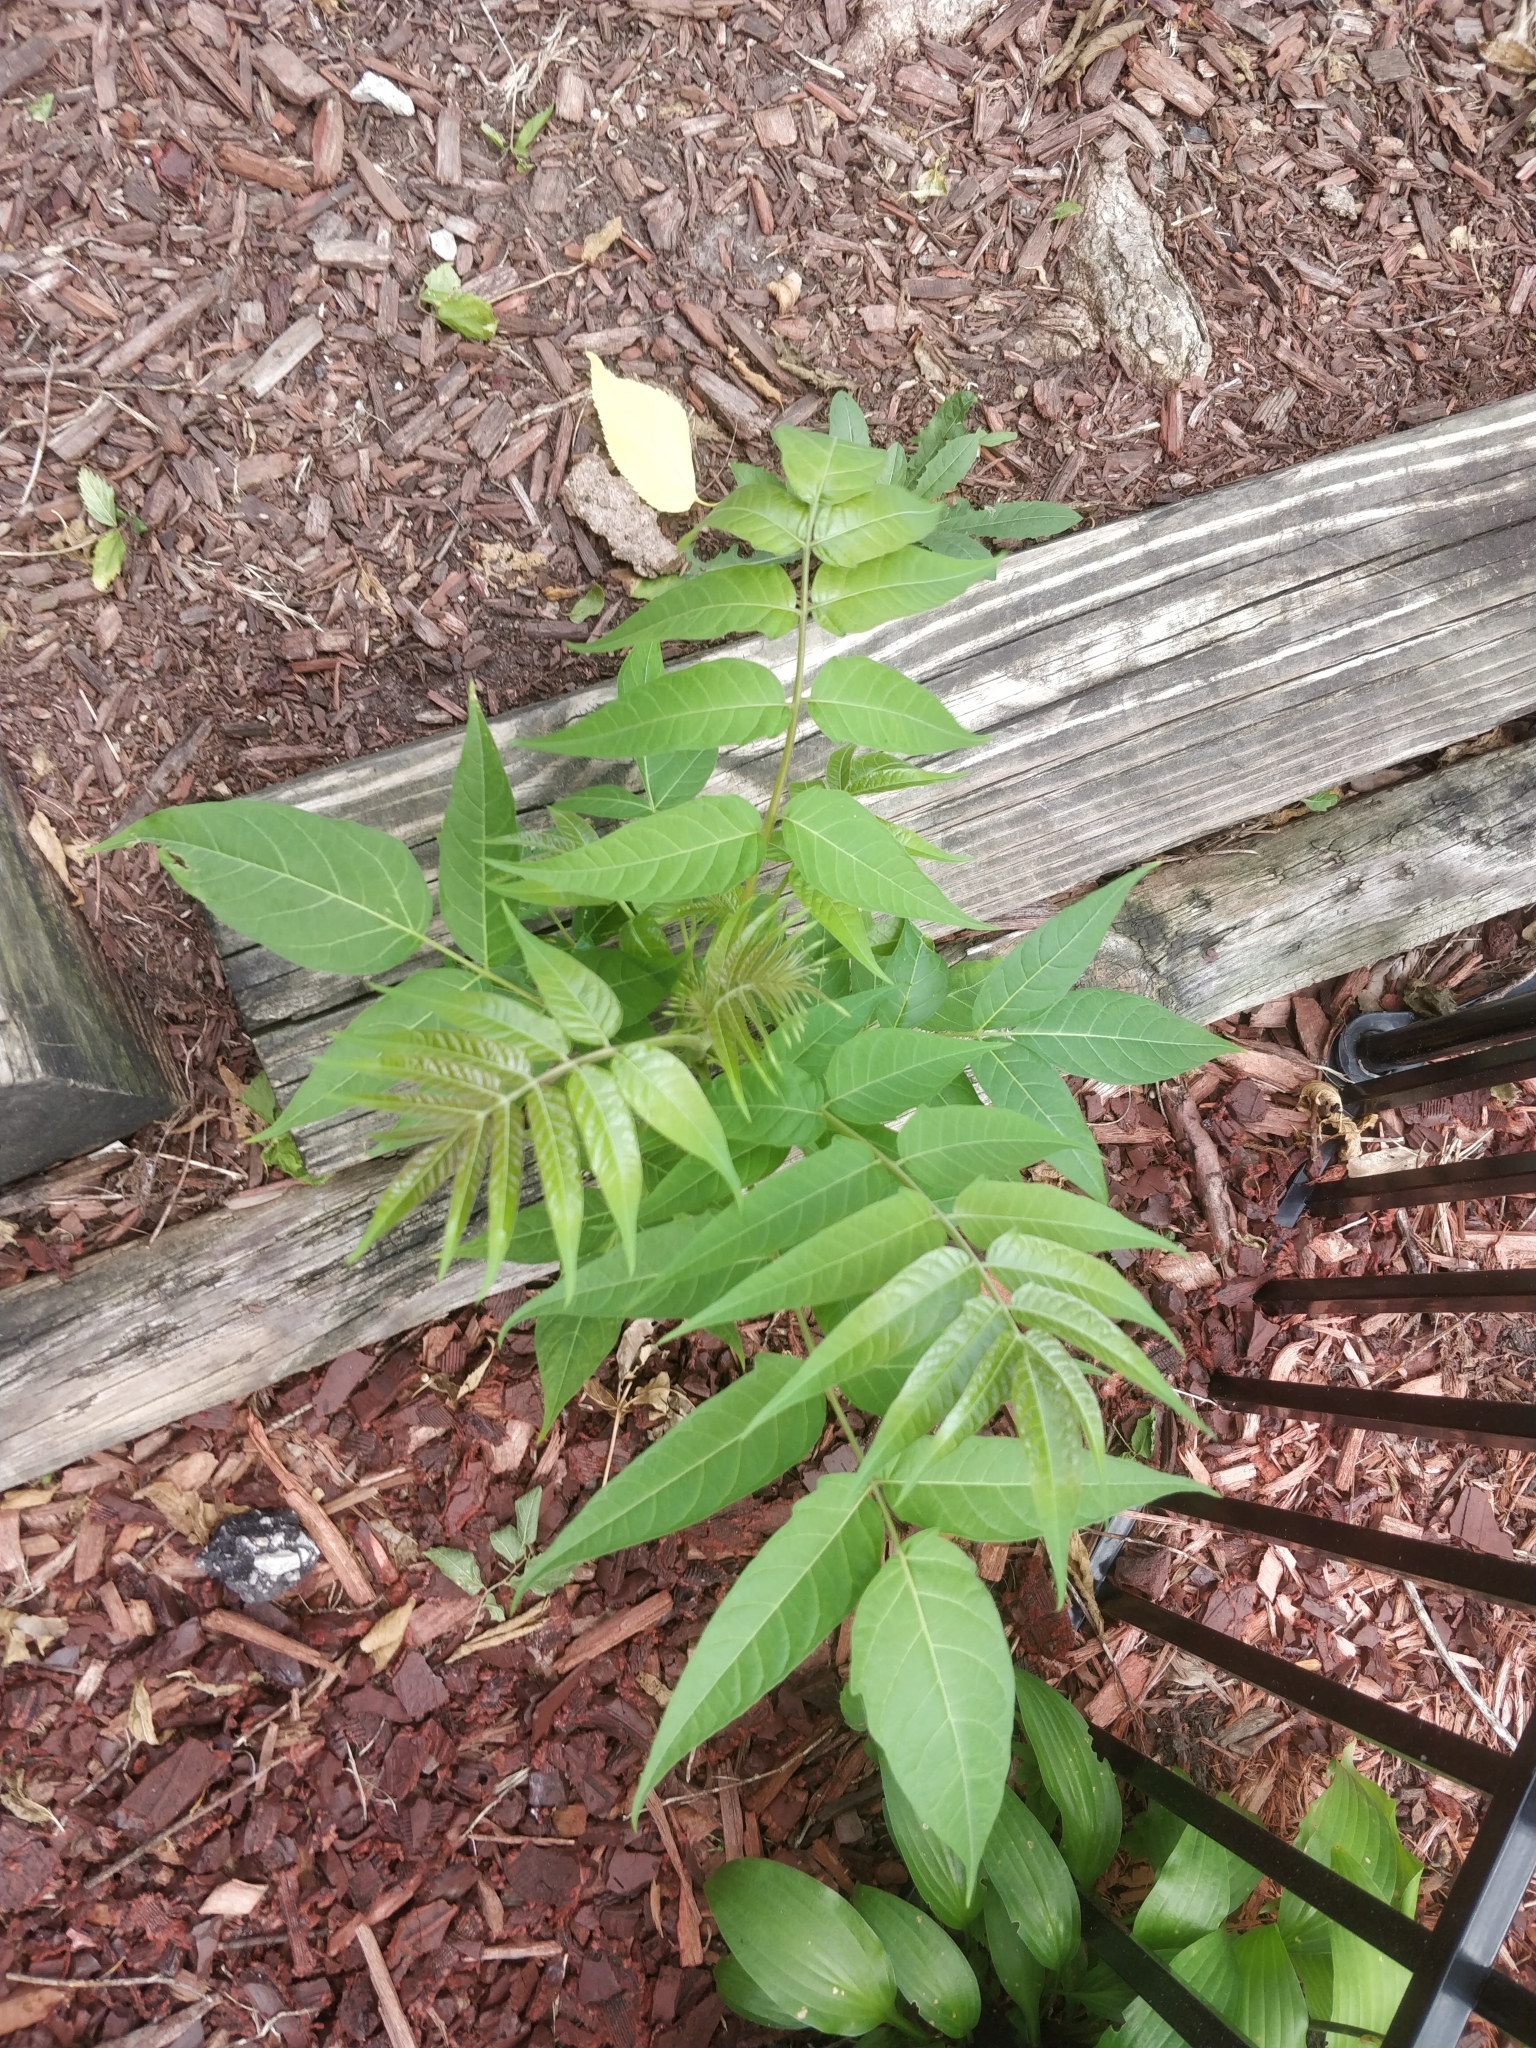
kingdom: Plantae
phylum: Tracheophyta
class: Magnoliopsida
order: Sapindales
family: Simaroubaceae
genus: Ailanthus
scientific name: Ailanthus altissima
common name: Tree-of-heaven
